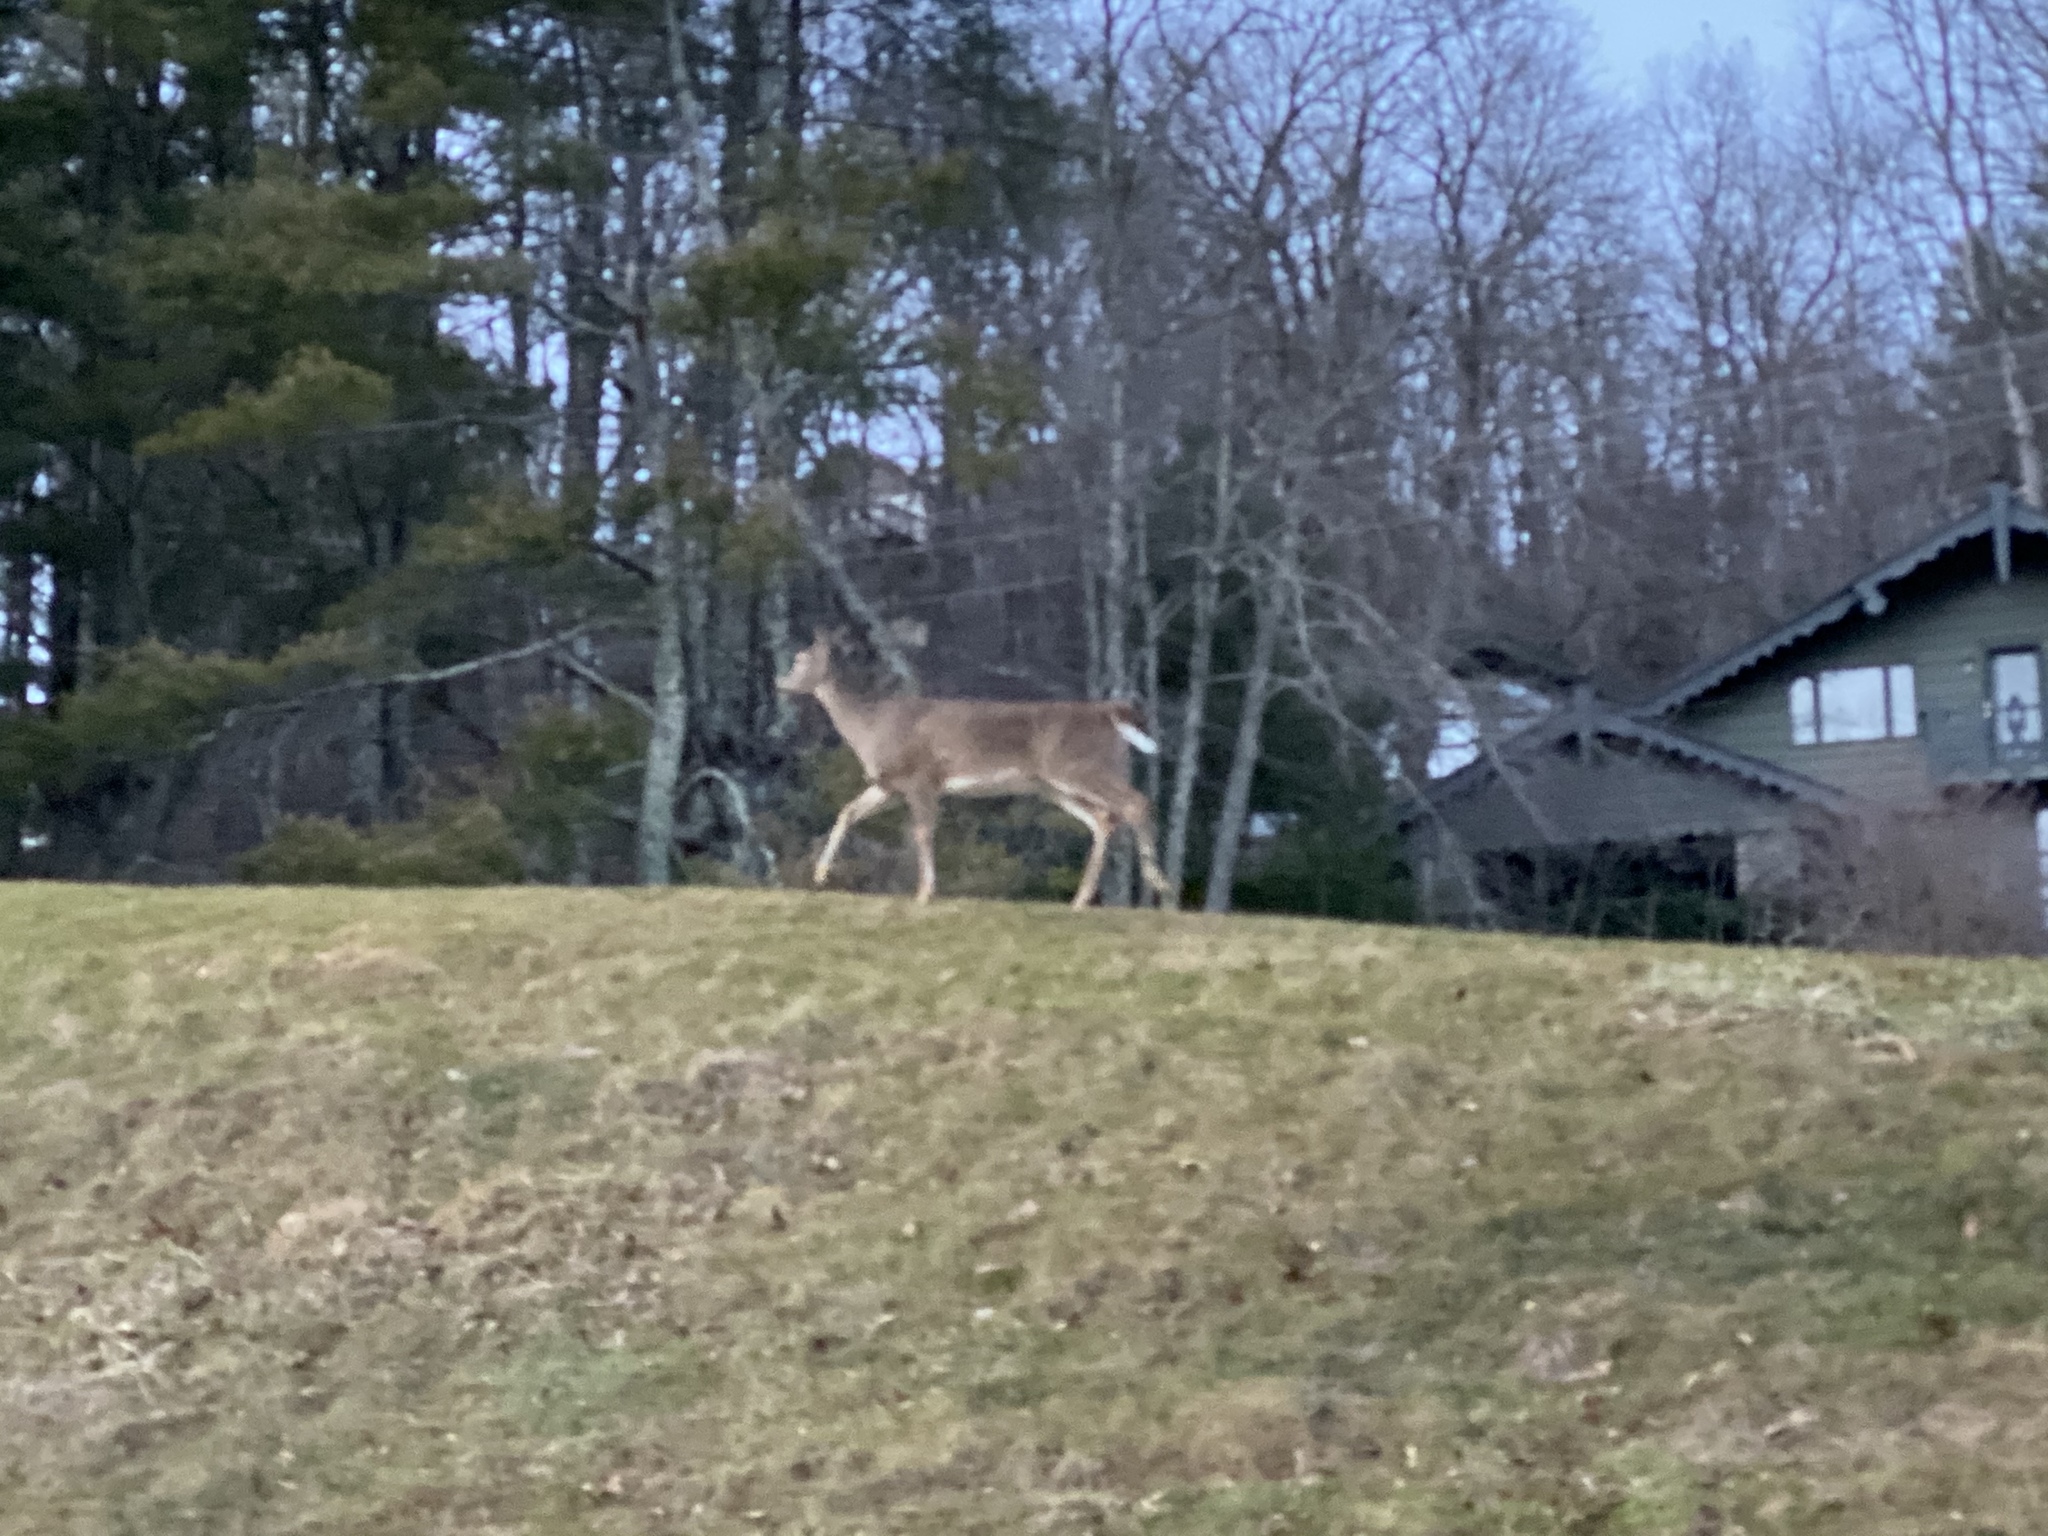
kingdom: Animalia
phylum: Chordata
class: Mammalia
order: Artiodactyla
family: Cervidae
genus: Odocoileus
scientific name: Odocoileus virginianus
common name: White-tailed deer
